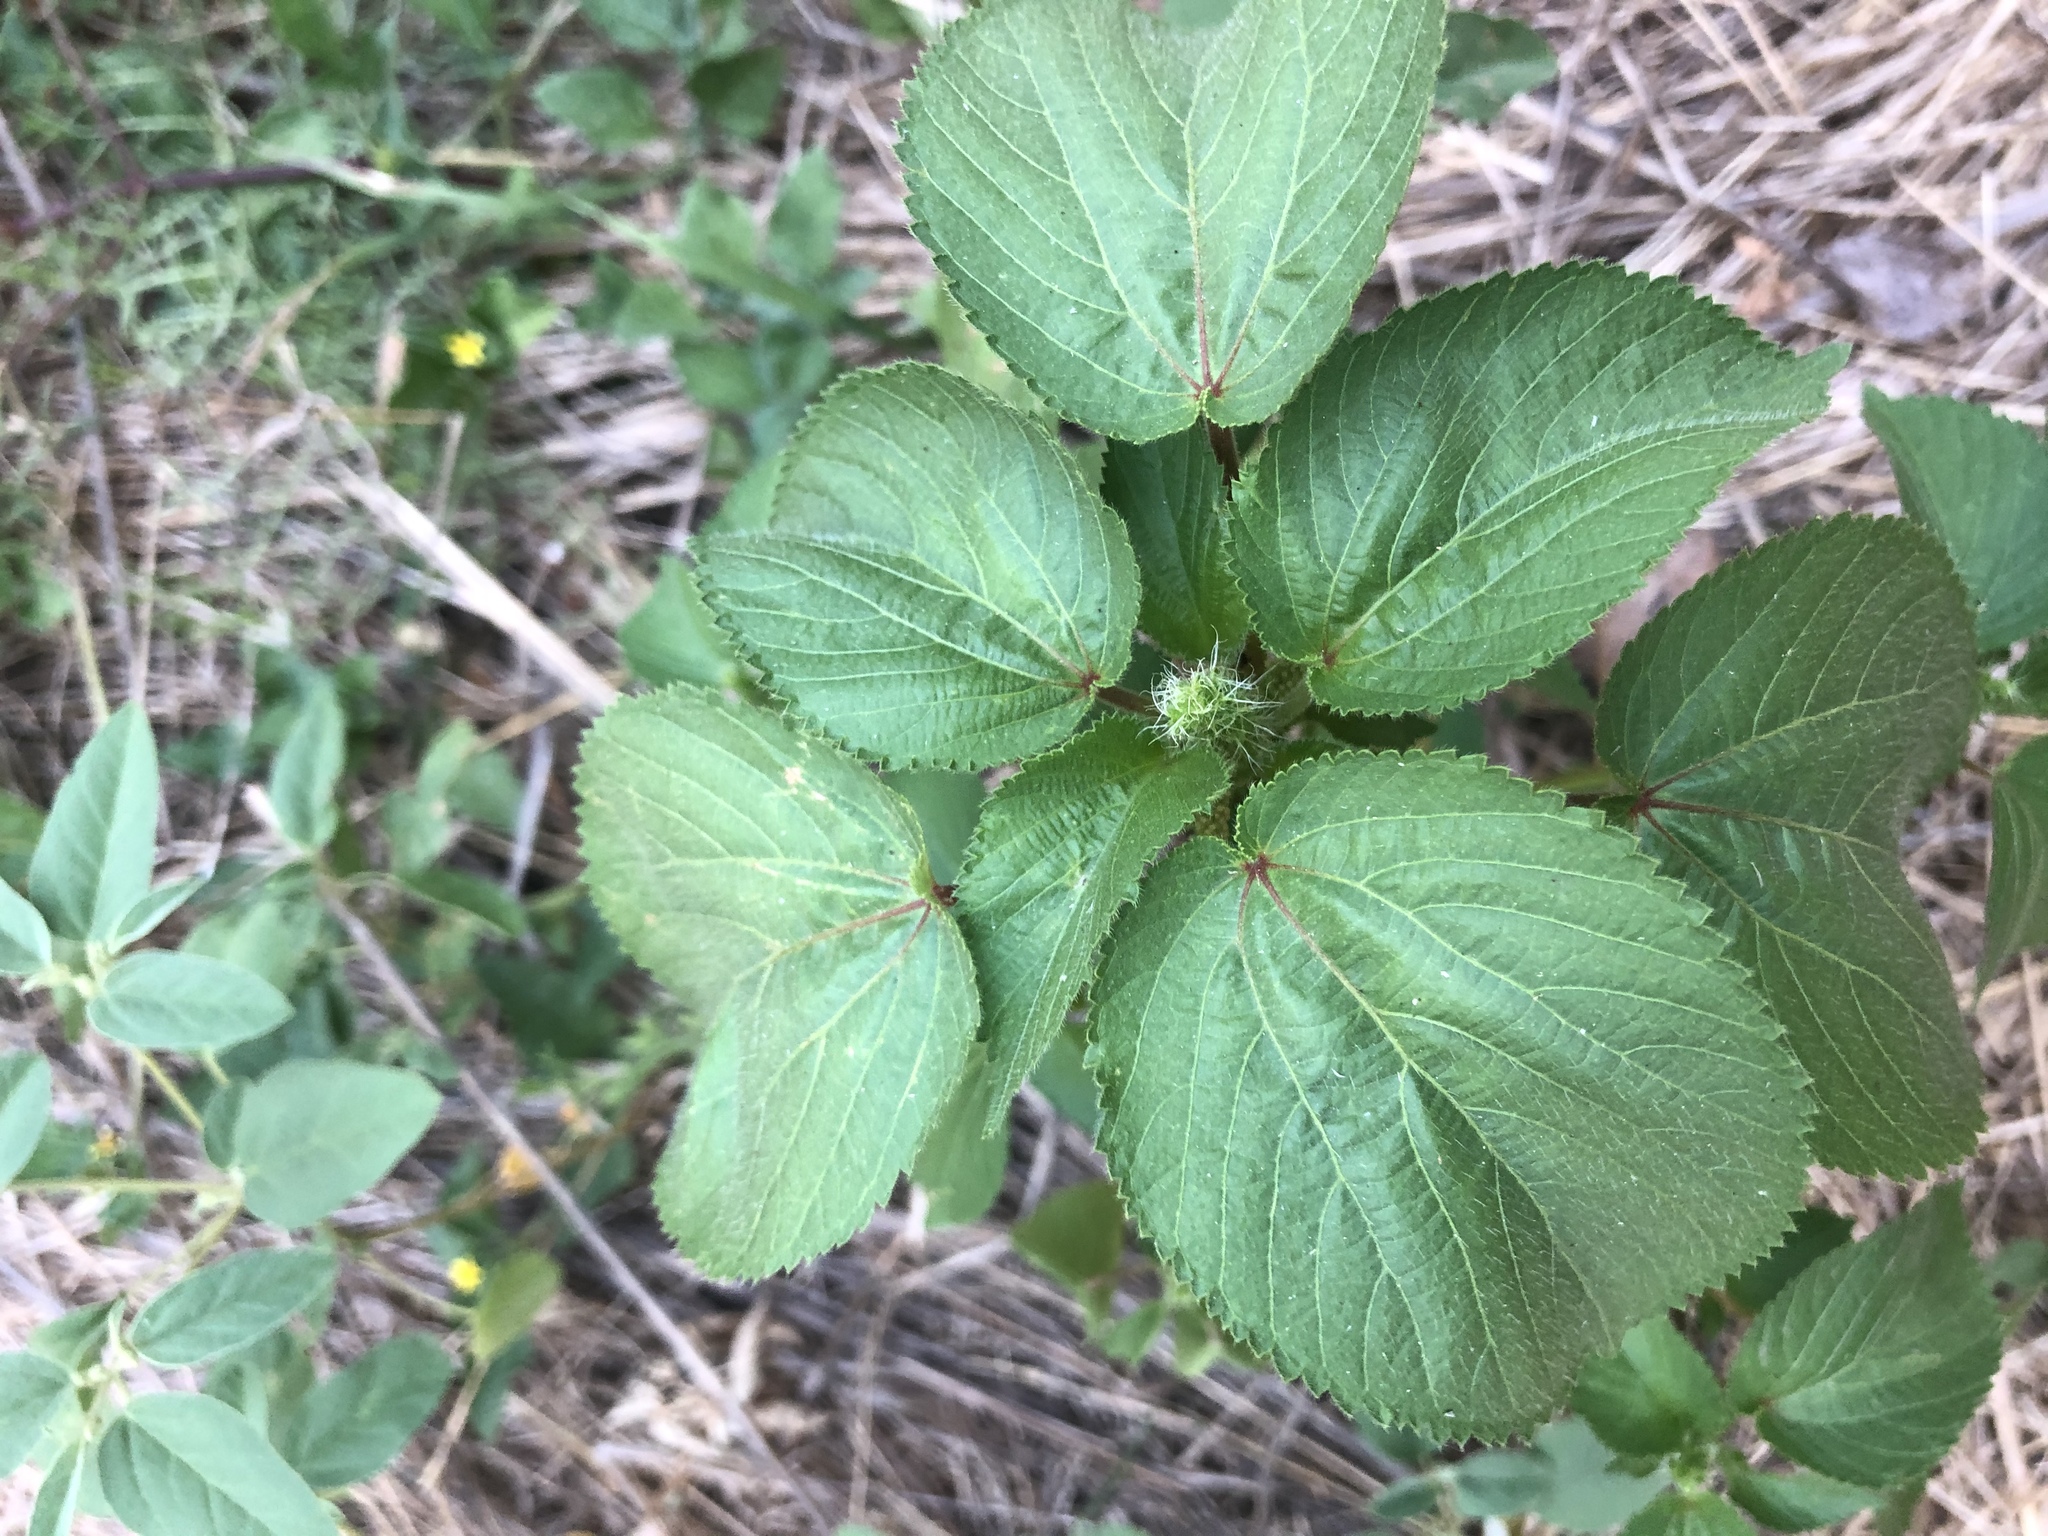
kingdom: Plantae
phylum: Tracheophyta
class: Magnoliopsida
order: Malpighiales
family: Euphorbiaceae
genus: Acalypha
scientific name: Acalypha ostryifolia
